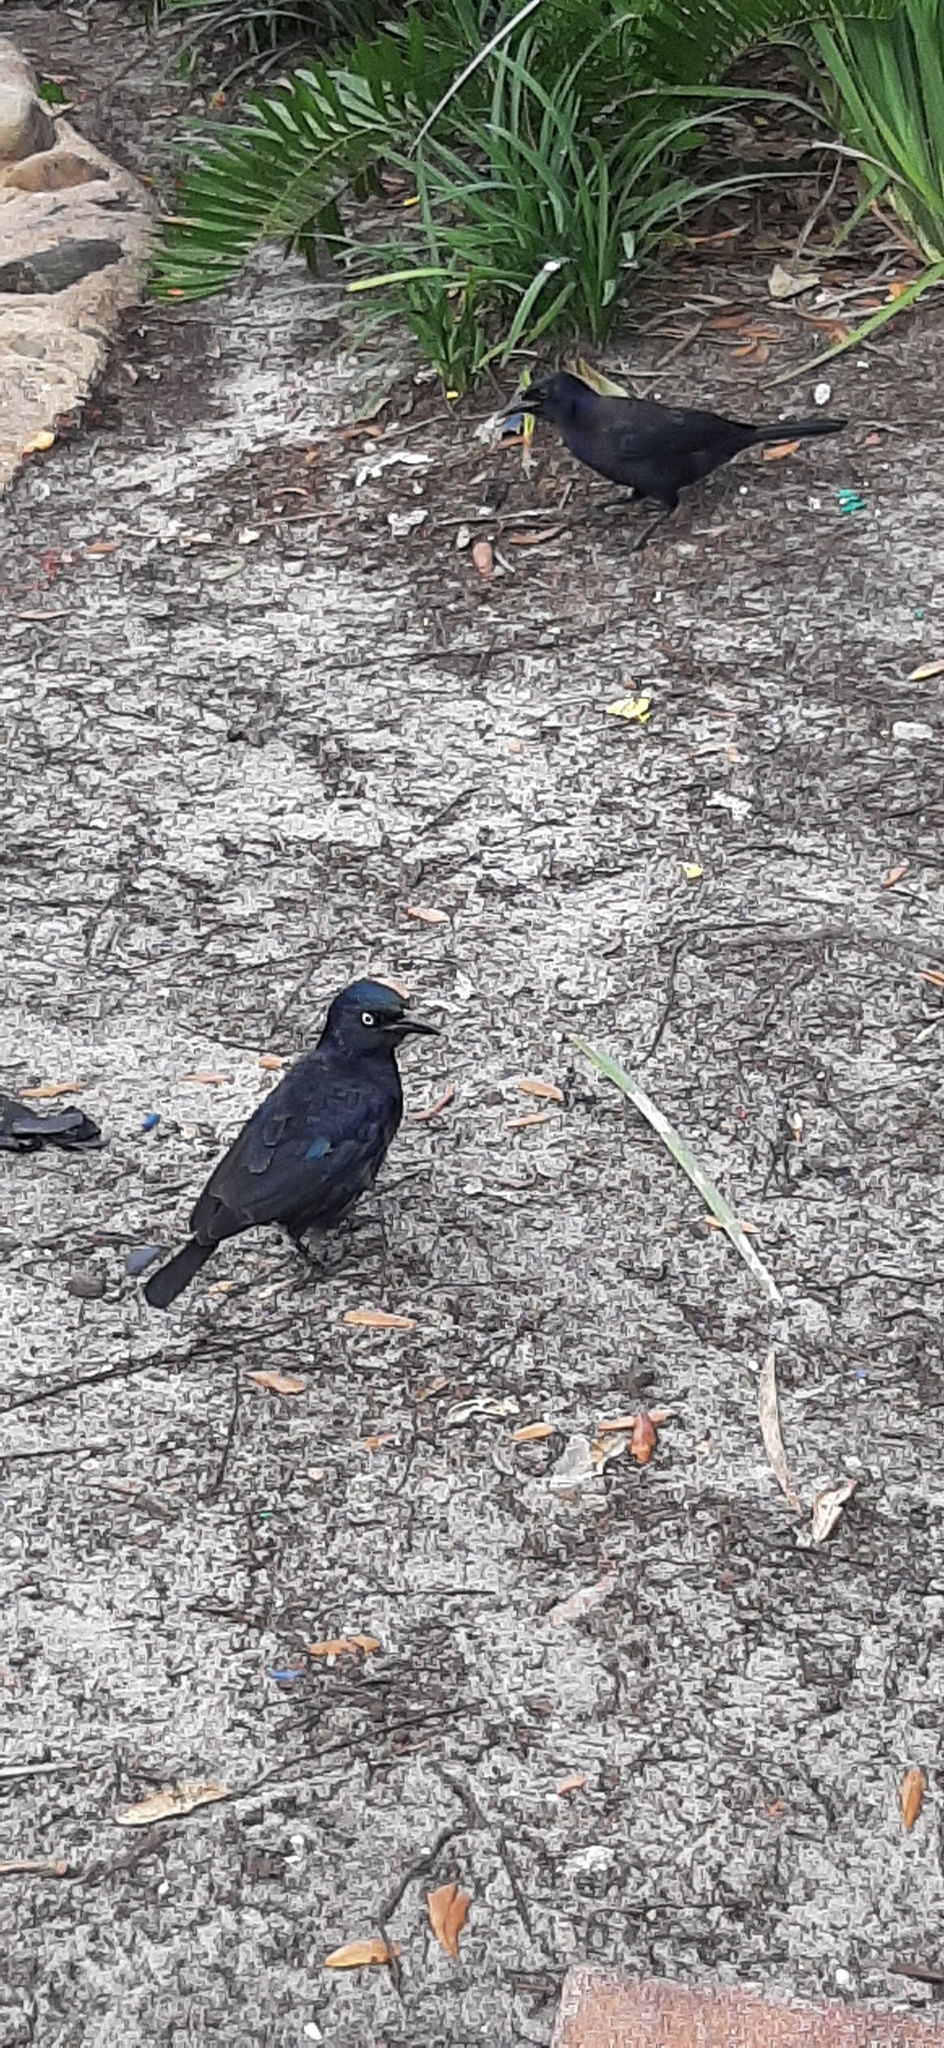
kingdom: Animalia
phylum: Chordata
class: Aves
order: Passeriformes
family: Icteridae
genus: Quiscalus
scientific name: Quiscalus quiscula
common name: Common grackle
